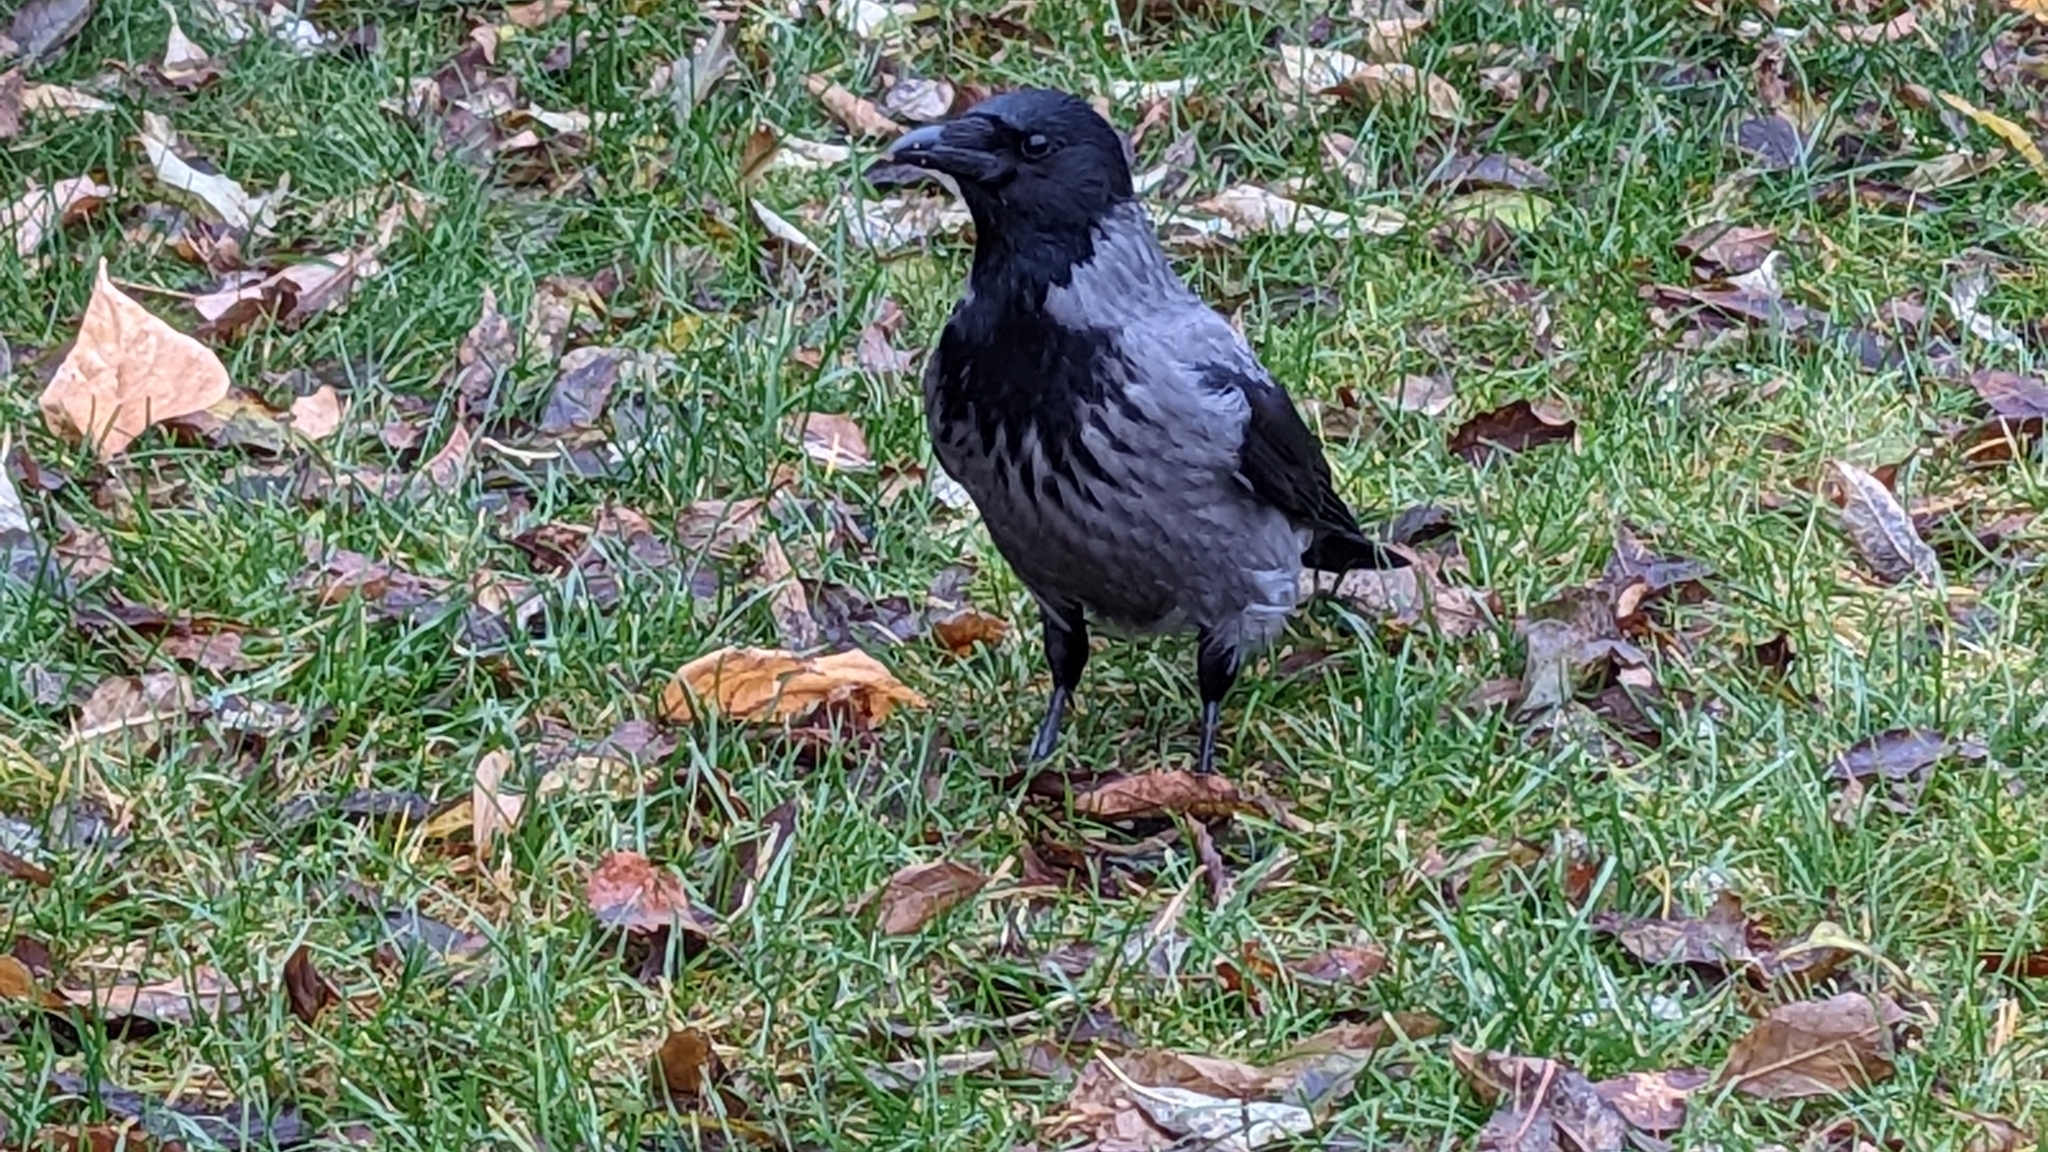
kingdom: Animalia
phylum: Chordata
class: Aves
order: Passeriformes
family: Corvidae
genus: Corvus
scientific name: Corvus cornix
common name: Hooded crow
